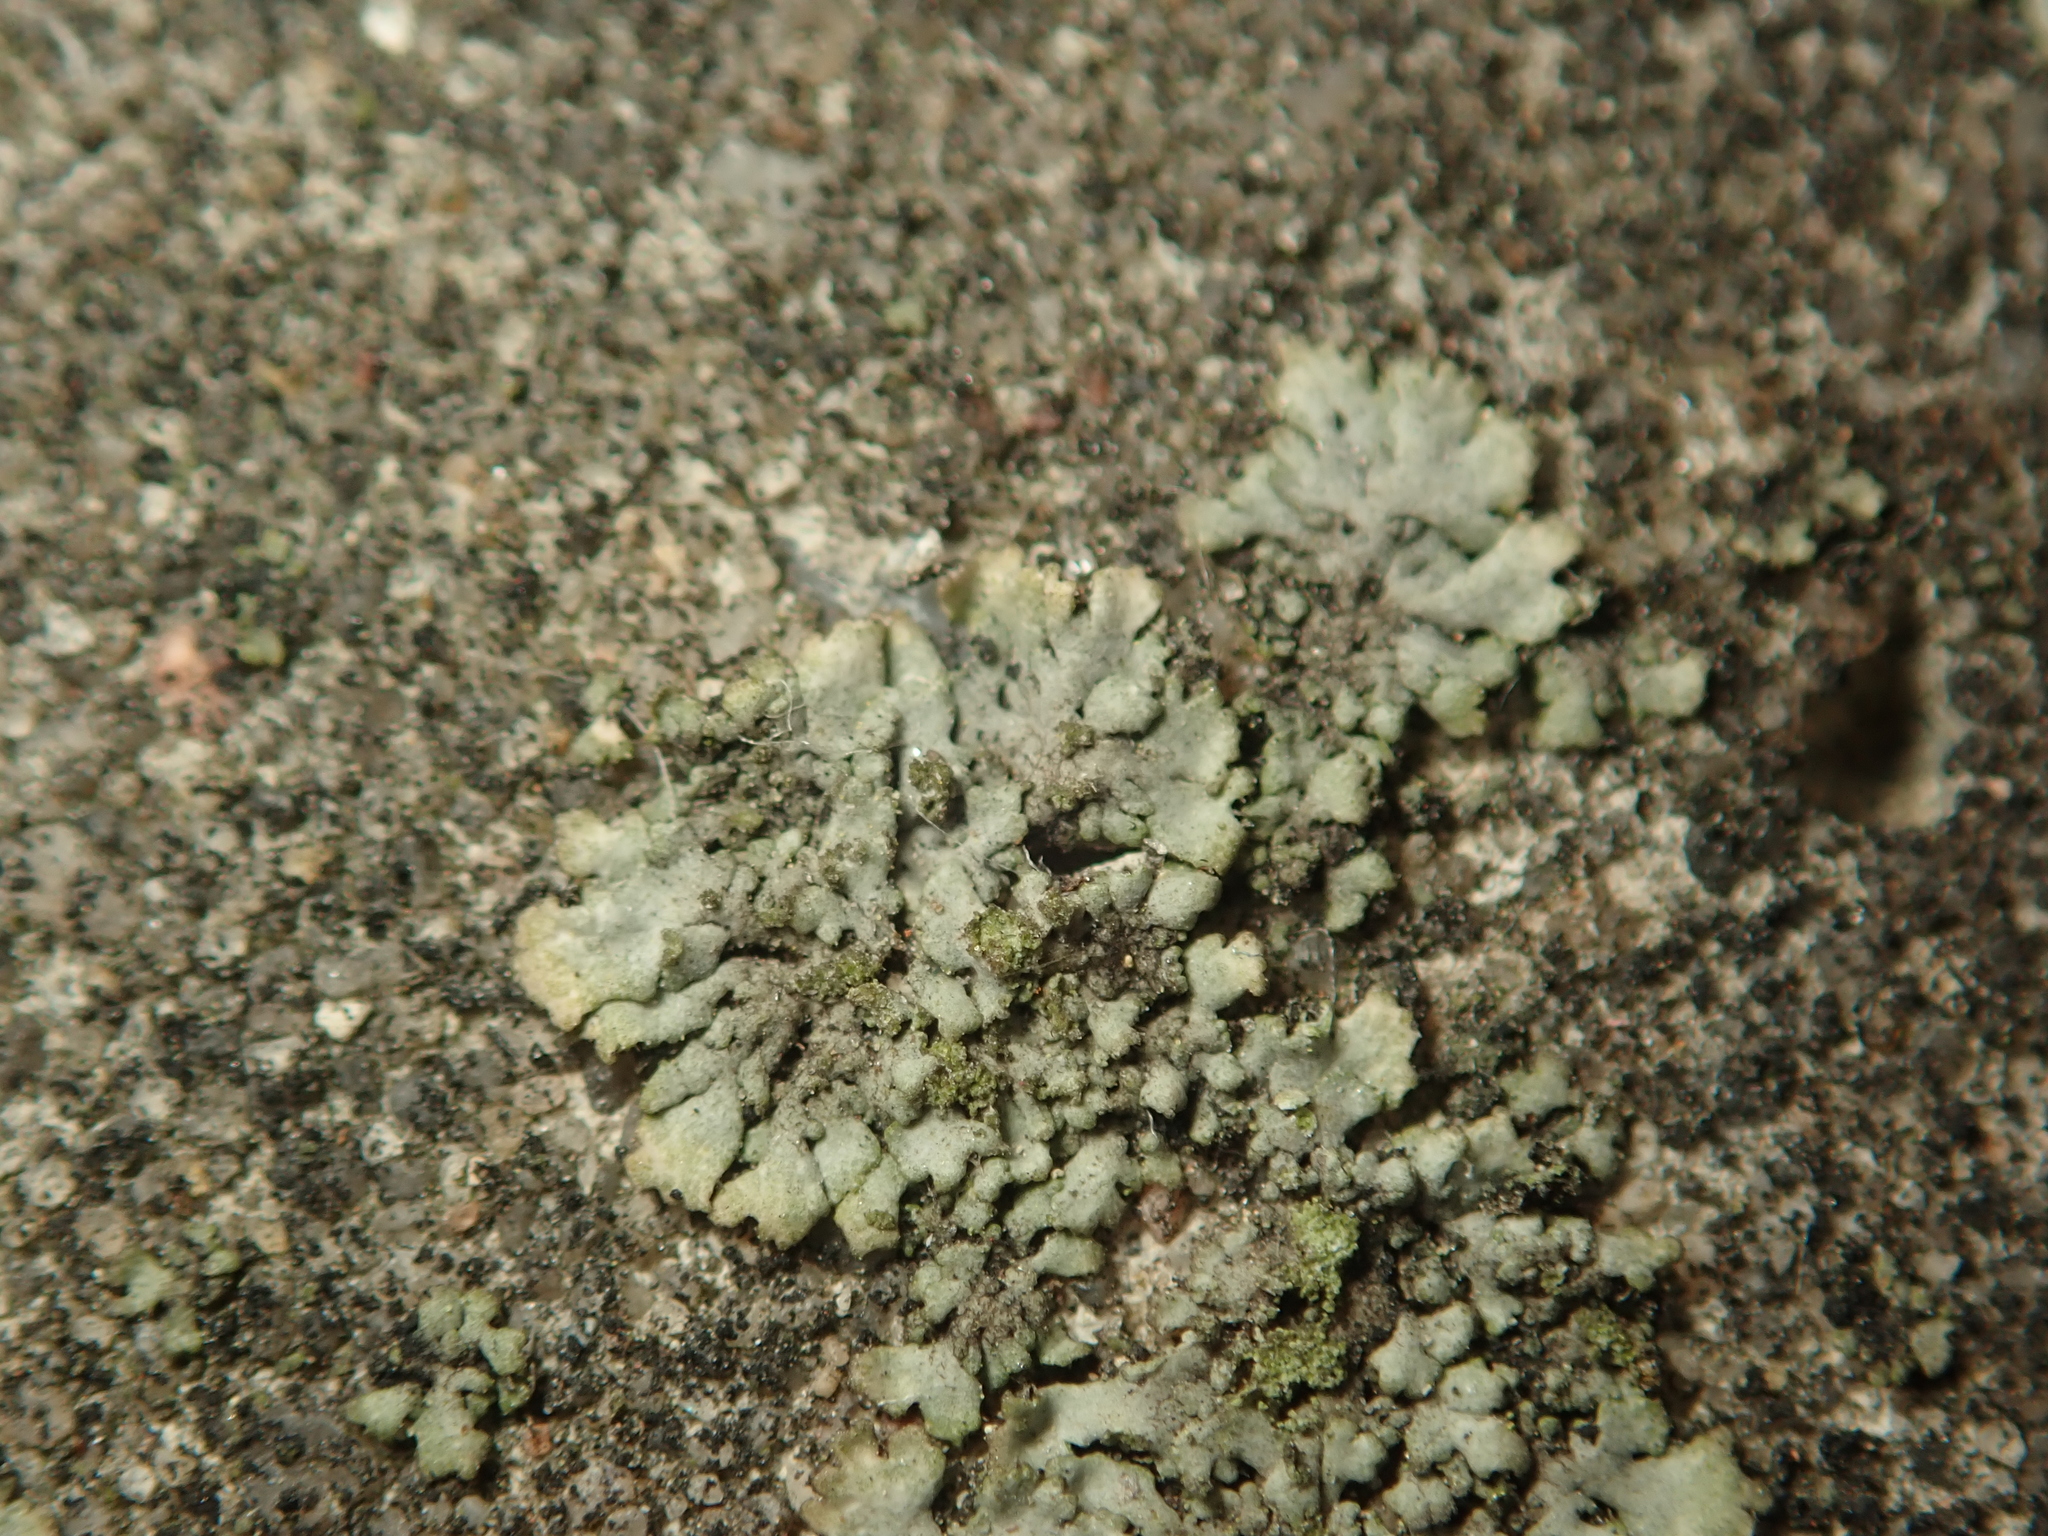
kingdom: Fungi
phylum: Ascomycota
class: Lecanoromycetes
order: Caliciales
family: Physciaceae
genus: Phaeophyscia
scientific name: Phaeophyscia orbicularis
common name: Mealy shadow lichen
